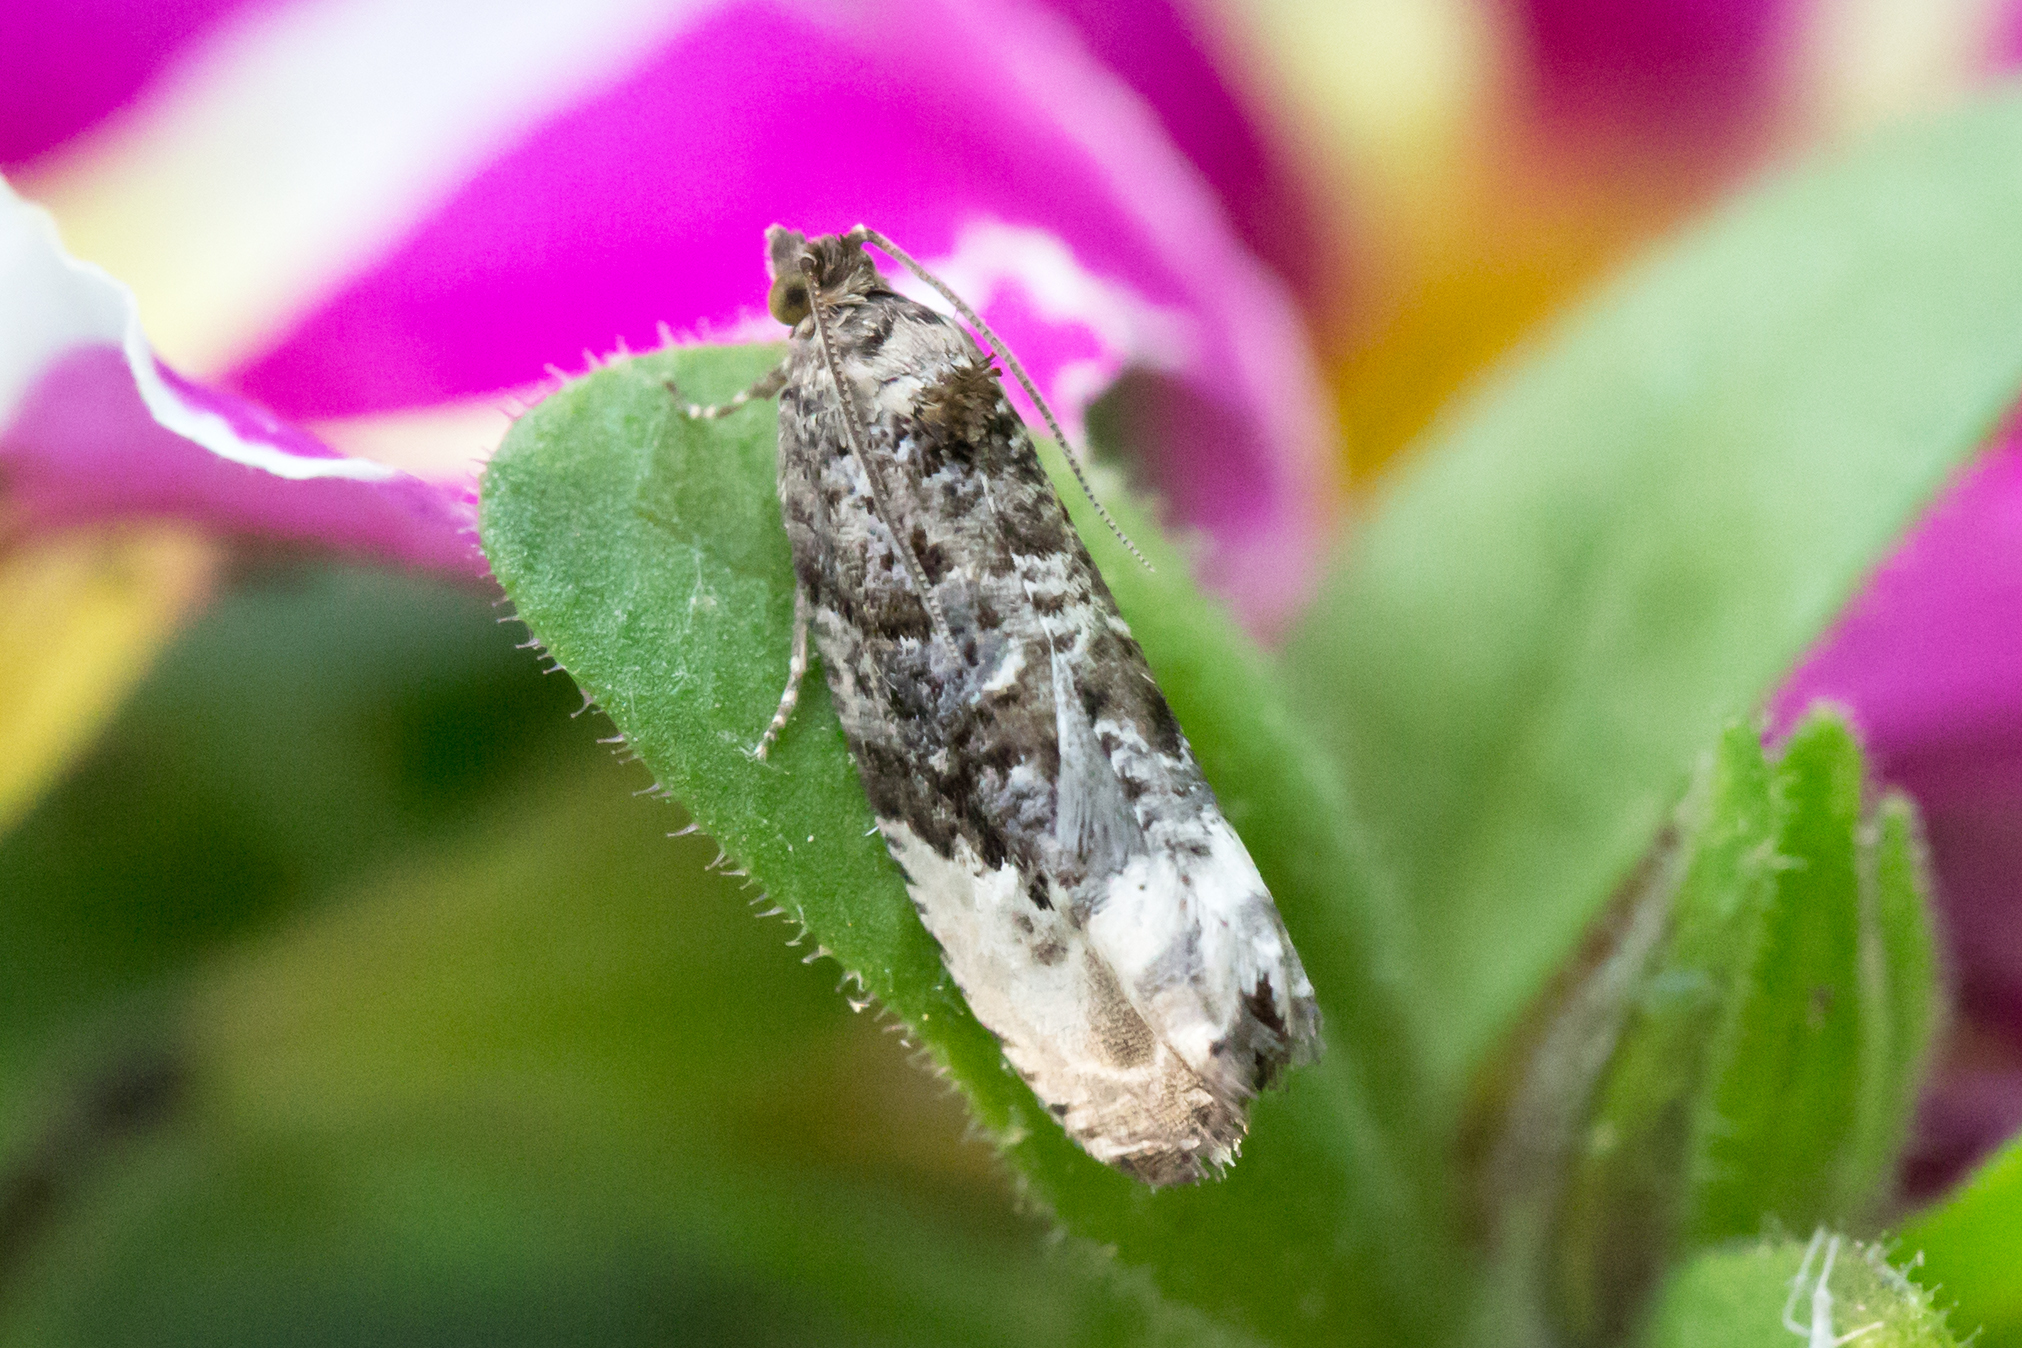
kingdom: Animalia
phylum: Arthropoda
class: Insecta
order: Lepidoptera
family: Tortricidae
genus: Hedya
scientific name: Hedya nubiferana
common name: Marbled orchard tortrix
